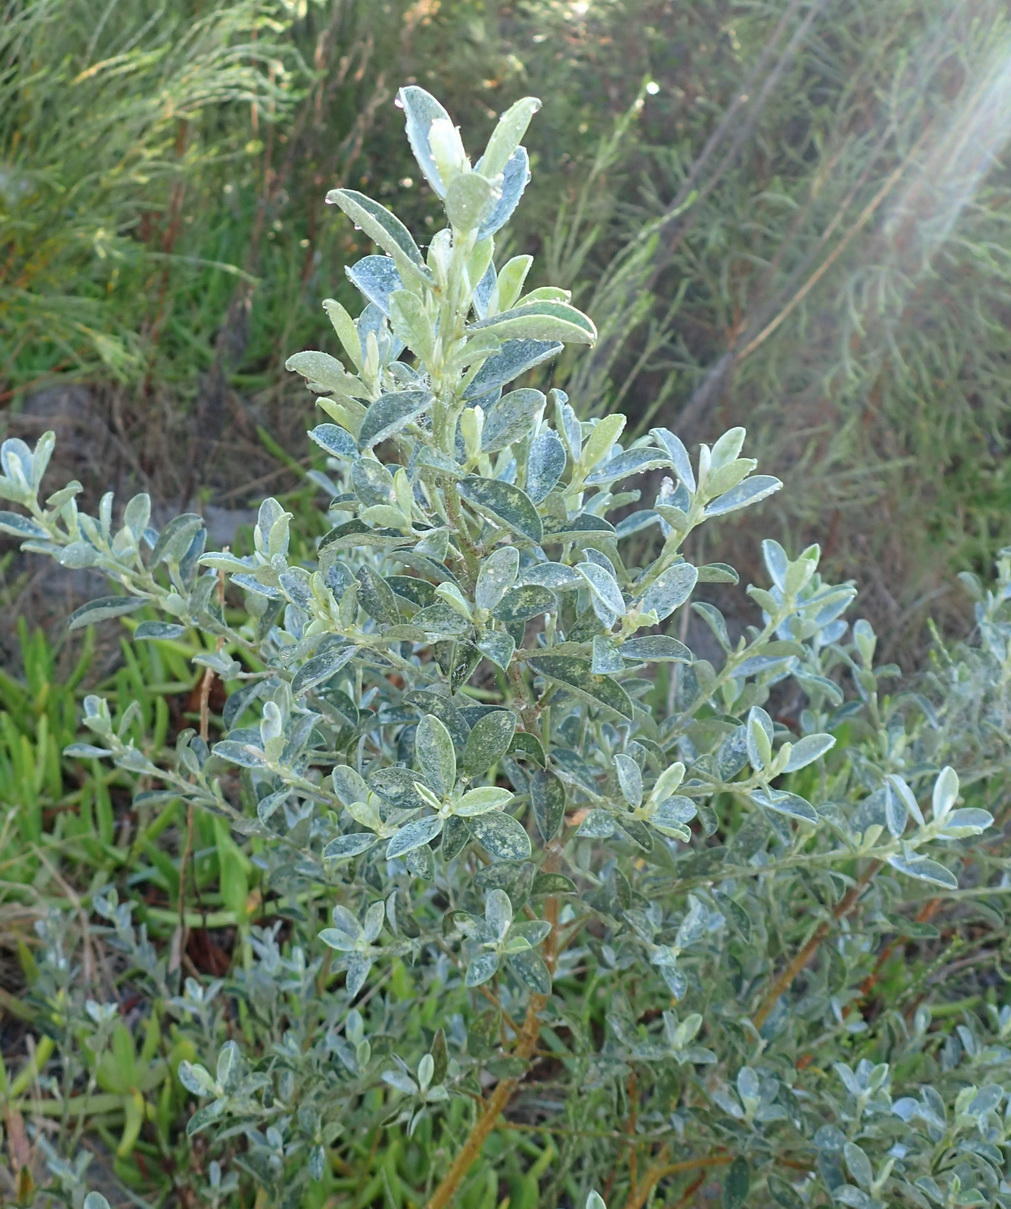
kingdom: Plantae
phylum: Tracheophyta
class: Magnoliopsida
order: Fabales
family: Fabaceae
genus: Podalyria
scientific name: Podalyria myrtillifolia
